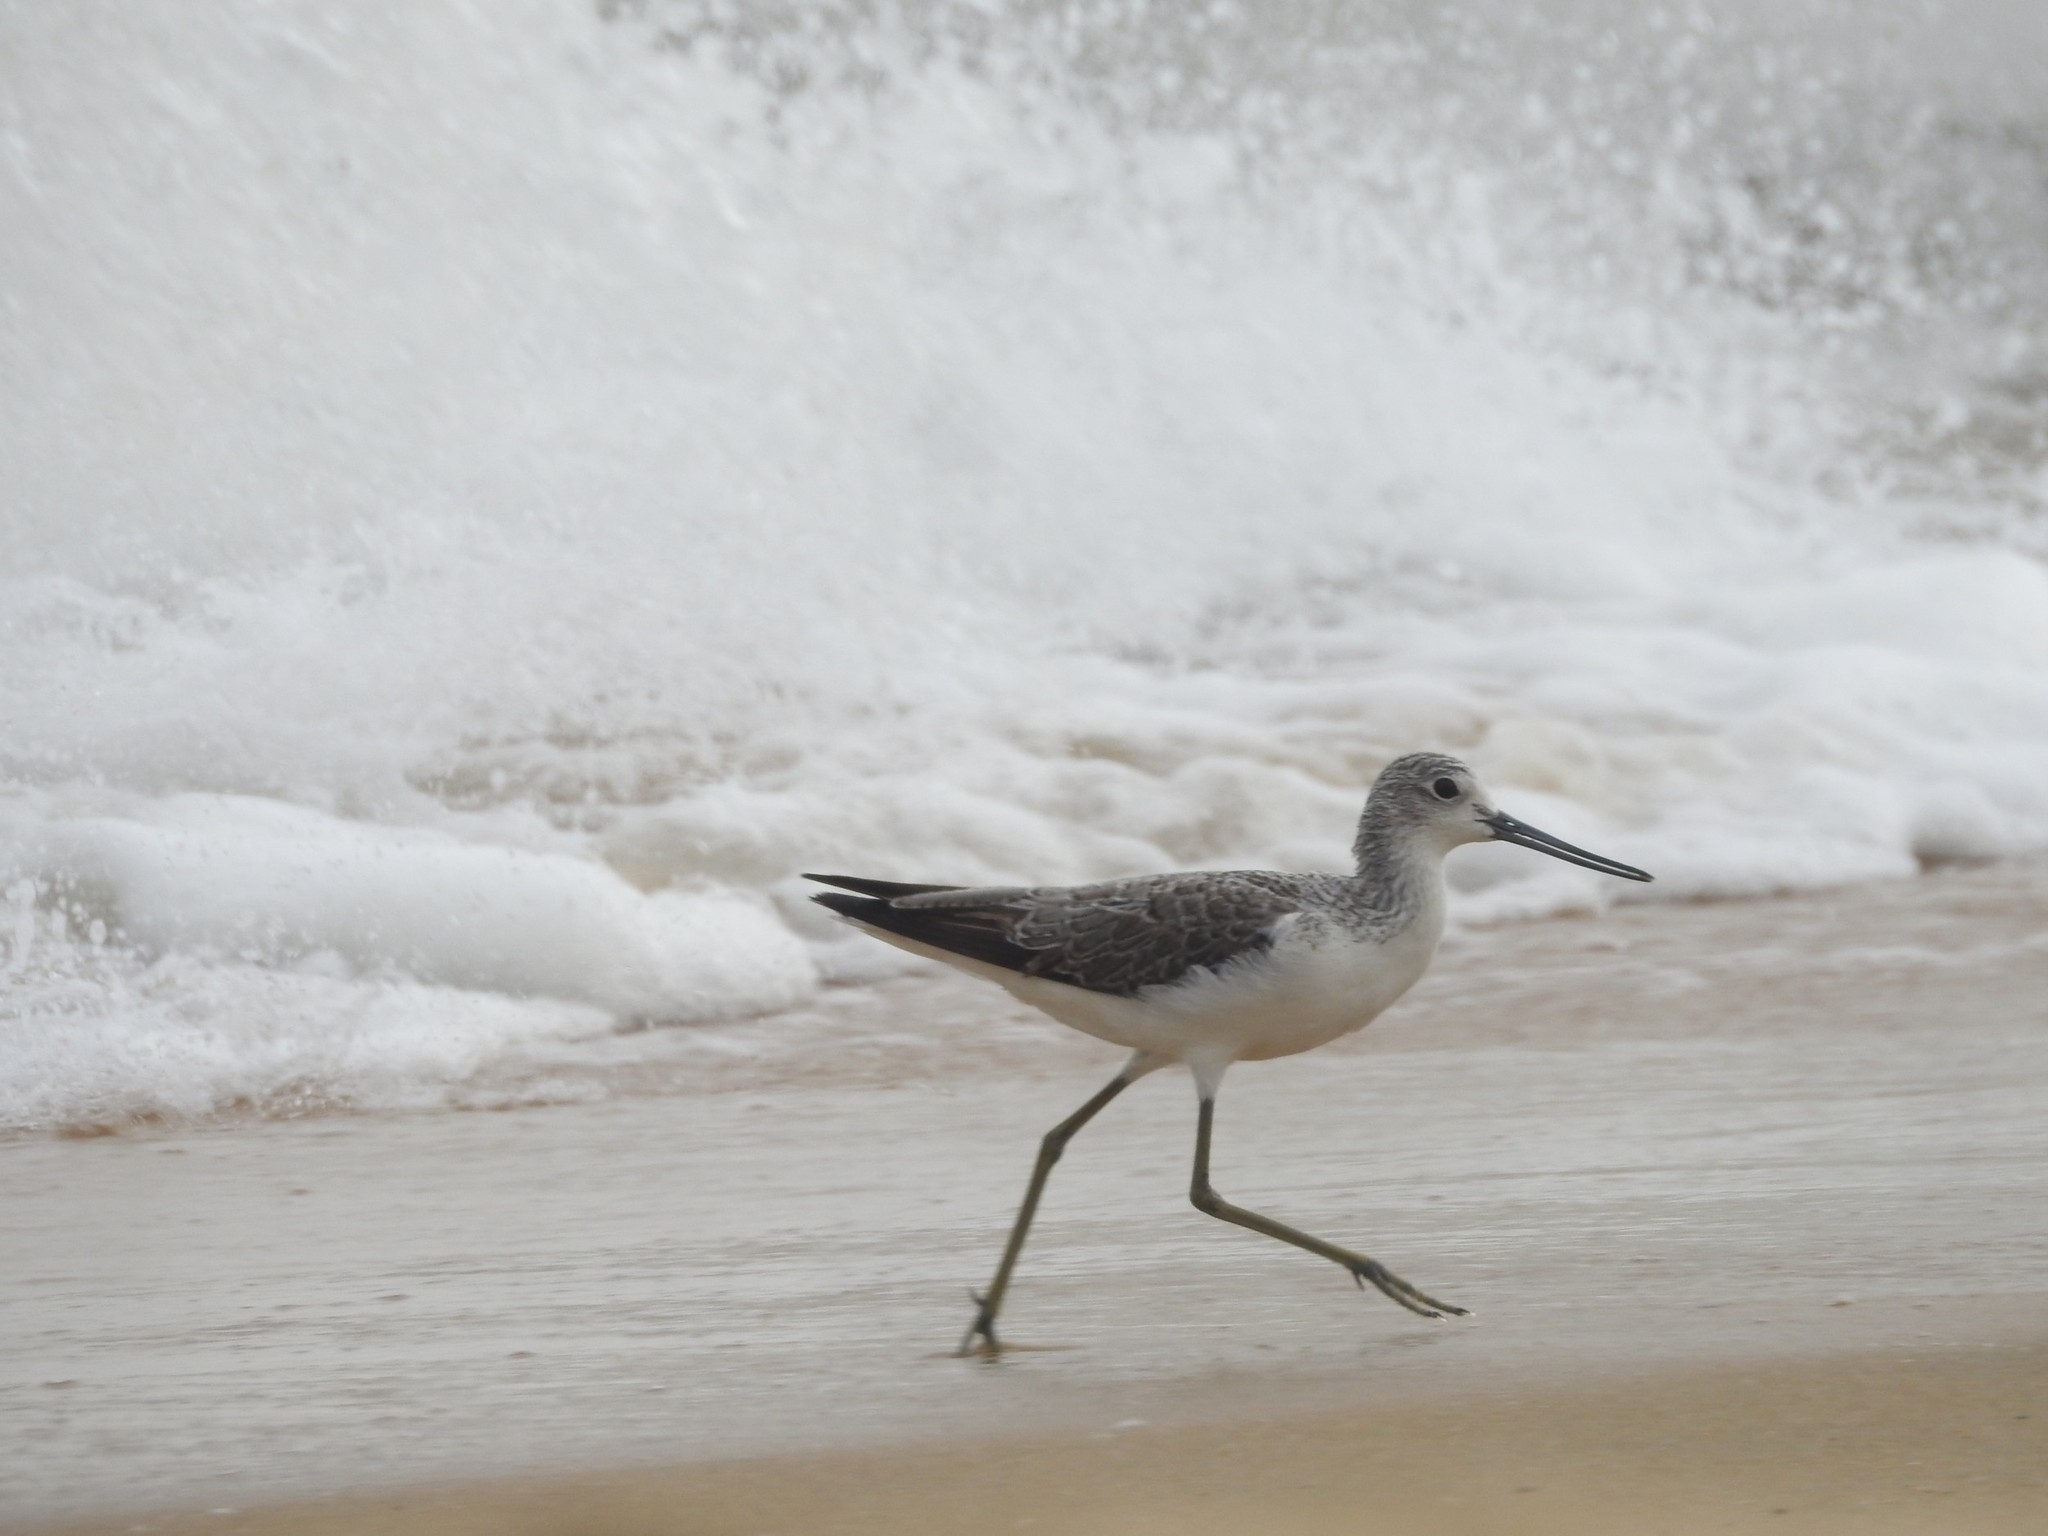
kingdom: Animalia
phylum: Chordata
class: Aves
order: Charadriiformes
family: Scolopacidae
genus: Tringa
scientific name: Tringa nebularia
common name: Common greenshank
